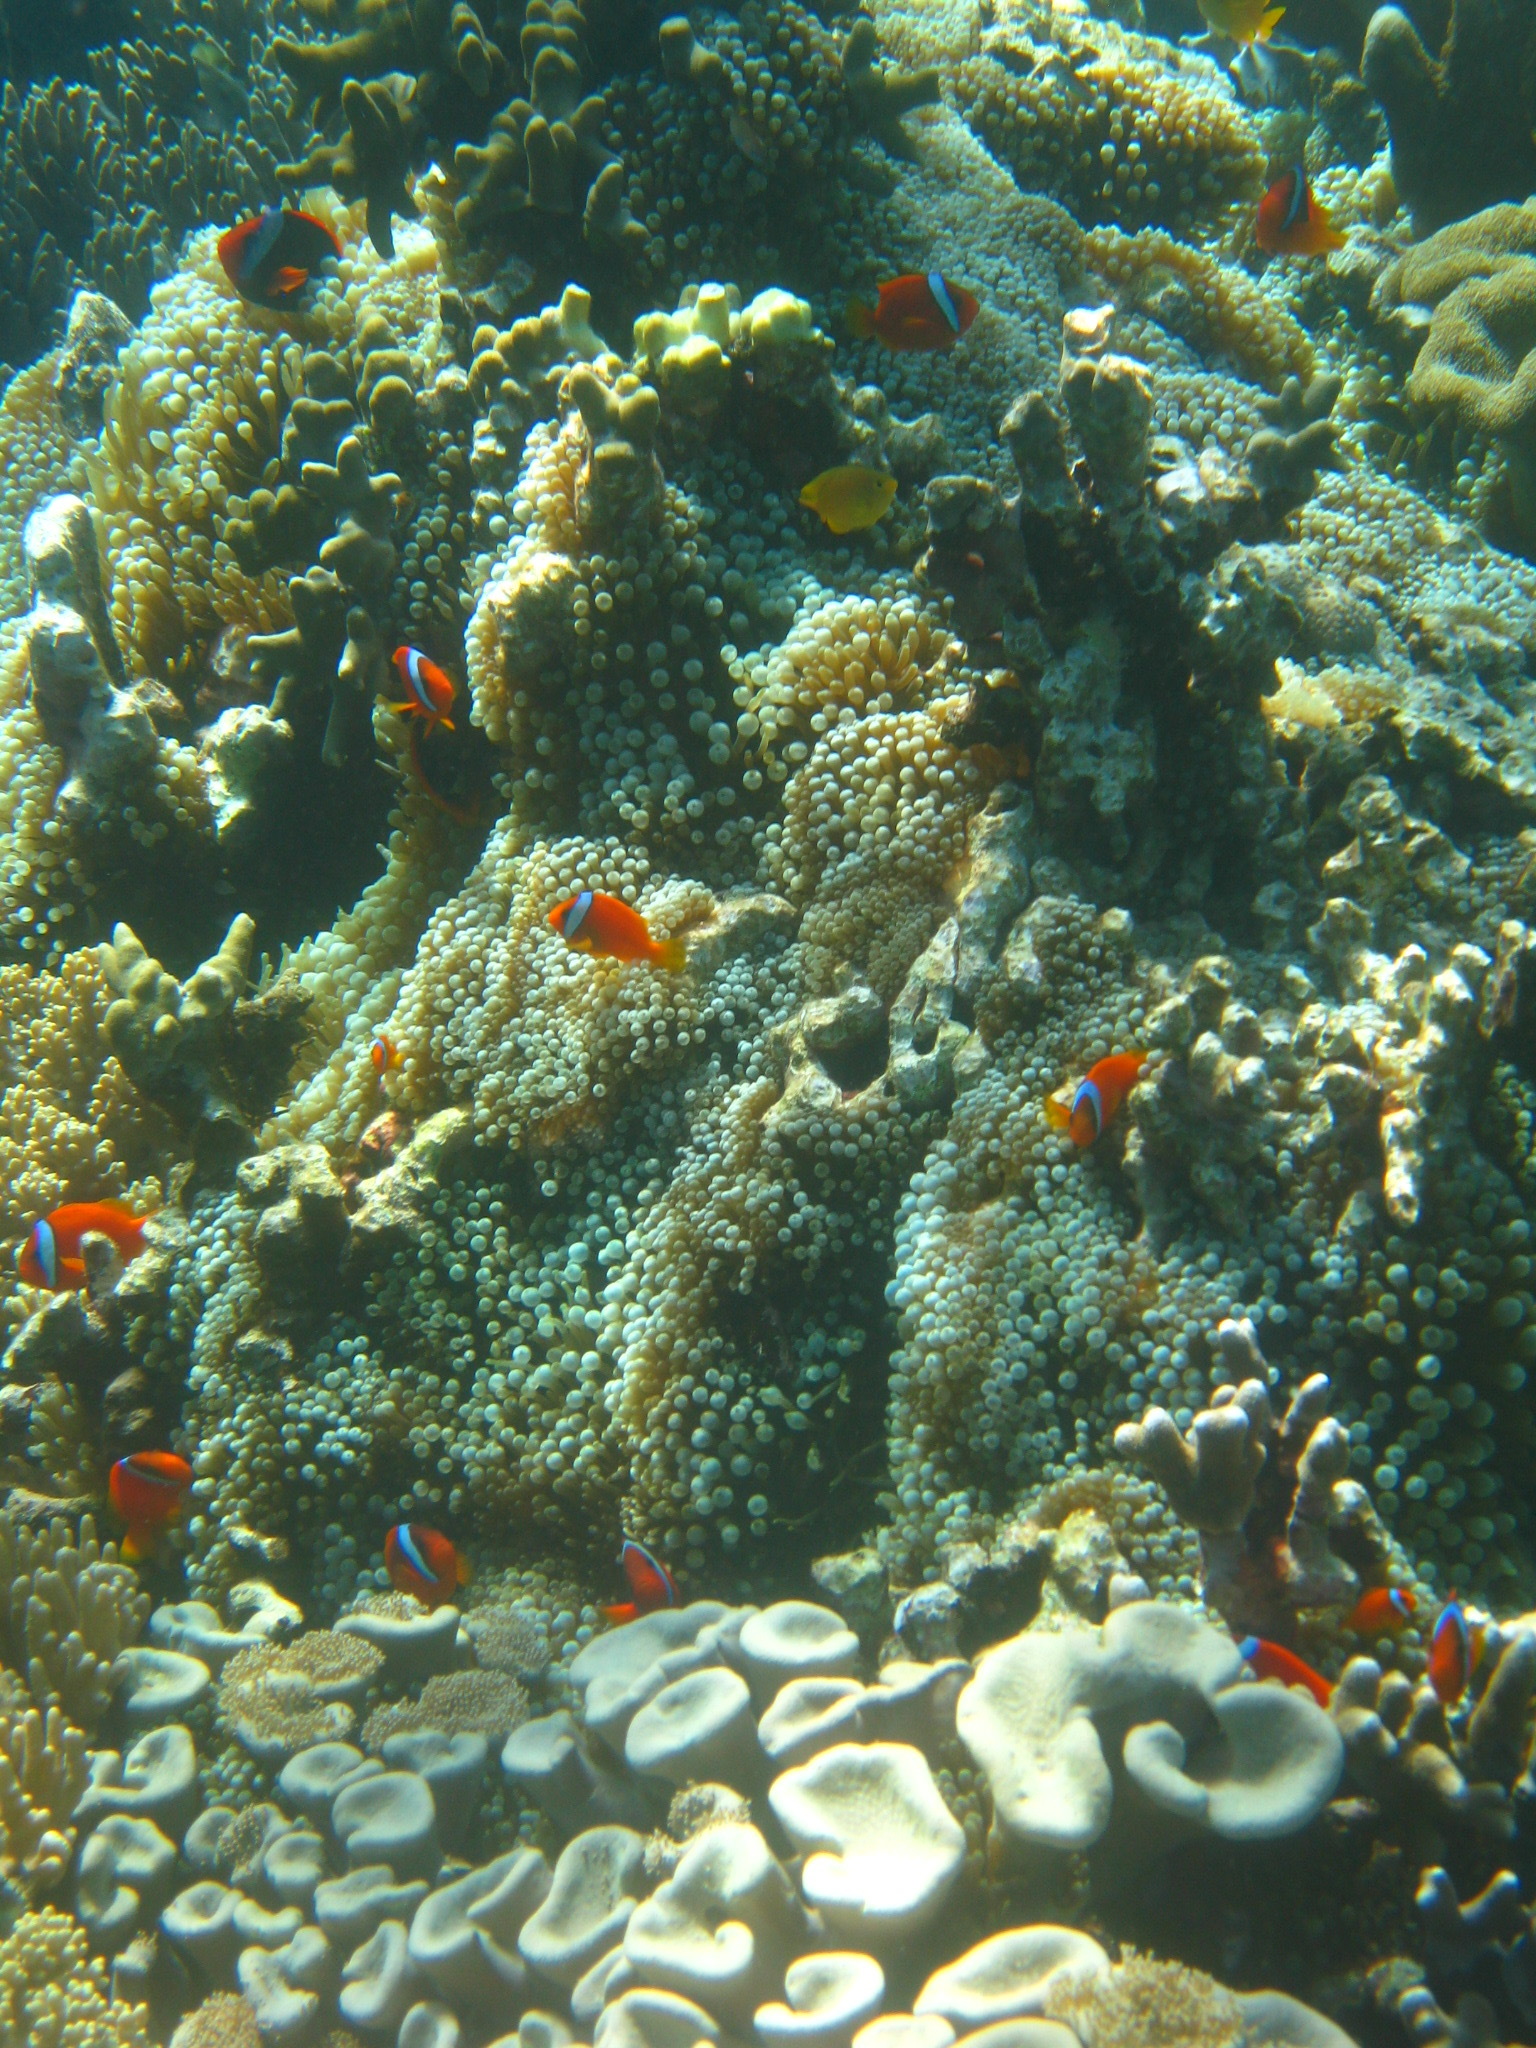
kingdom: Animalia
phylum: Chordata
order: Perciformes
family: Pomacentridae
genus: Amphiprion
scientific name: Amphiprion frenatus
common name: Tomato anemonefish
